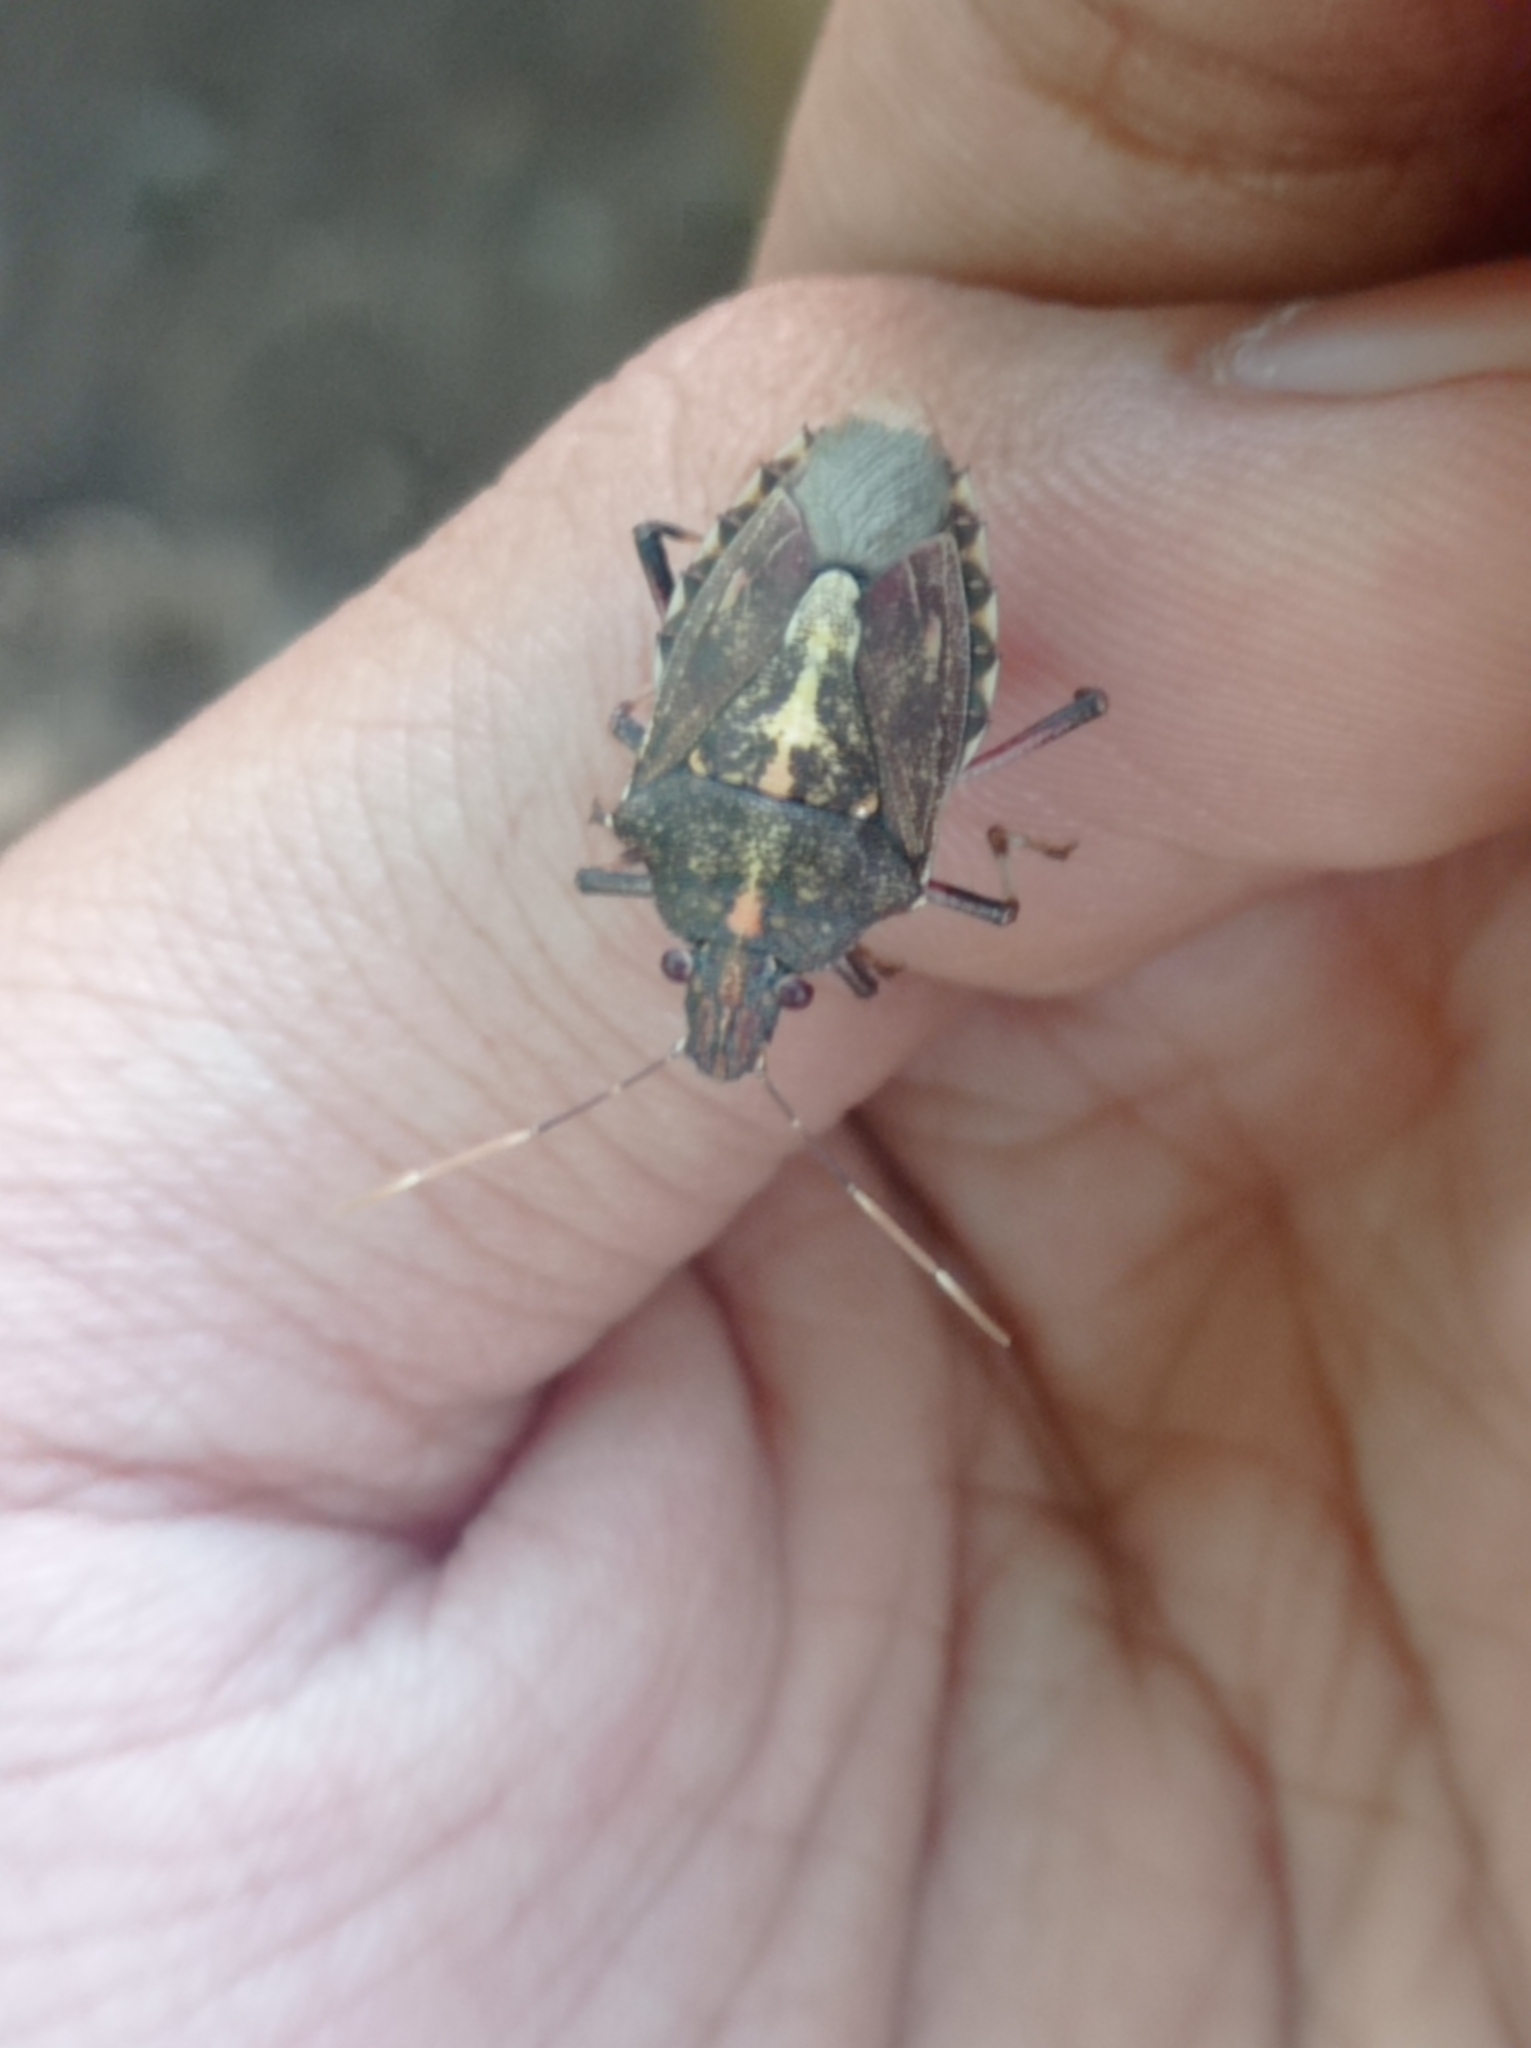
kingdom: Animalia
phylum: Arthropoda
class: Insecta
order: Hemiptera
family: Pentatomidae
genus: Dalpada
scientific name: Dalpada
